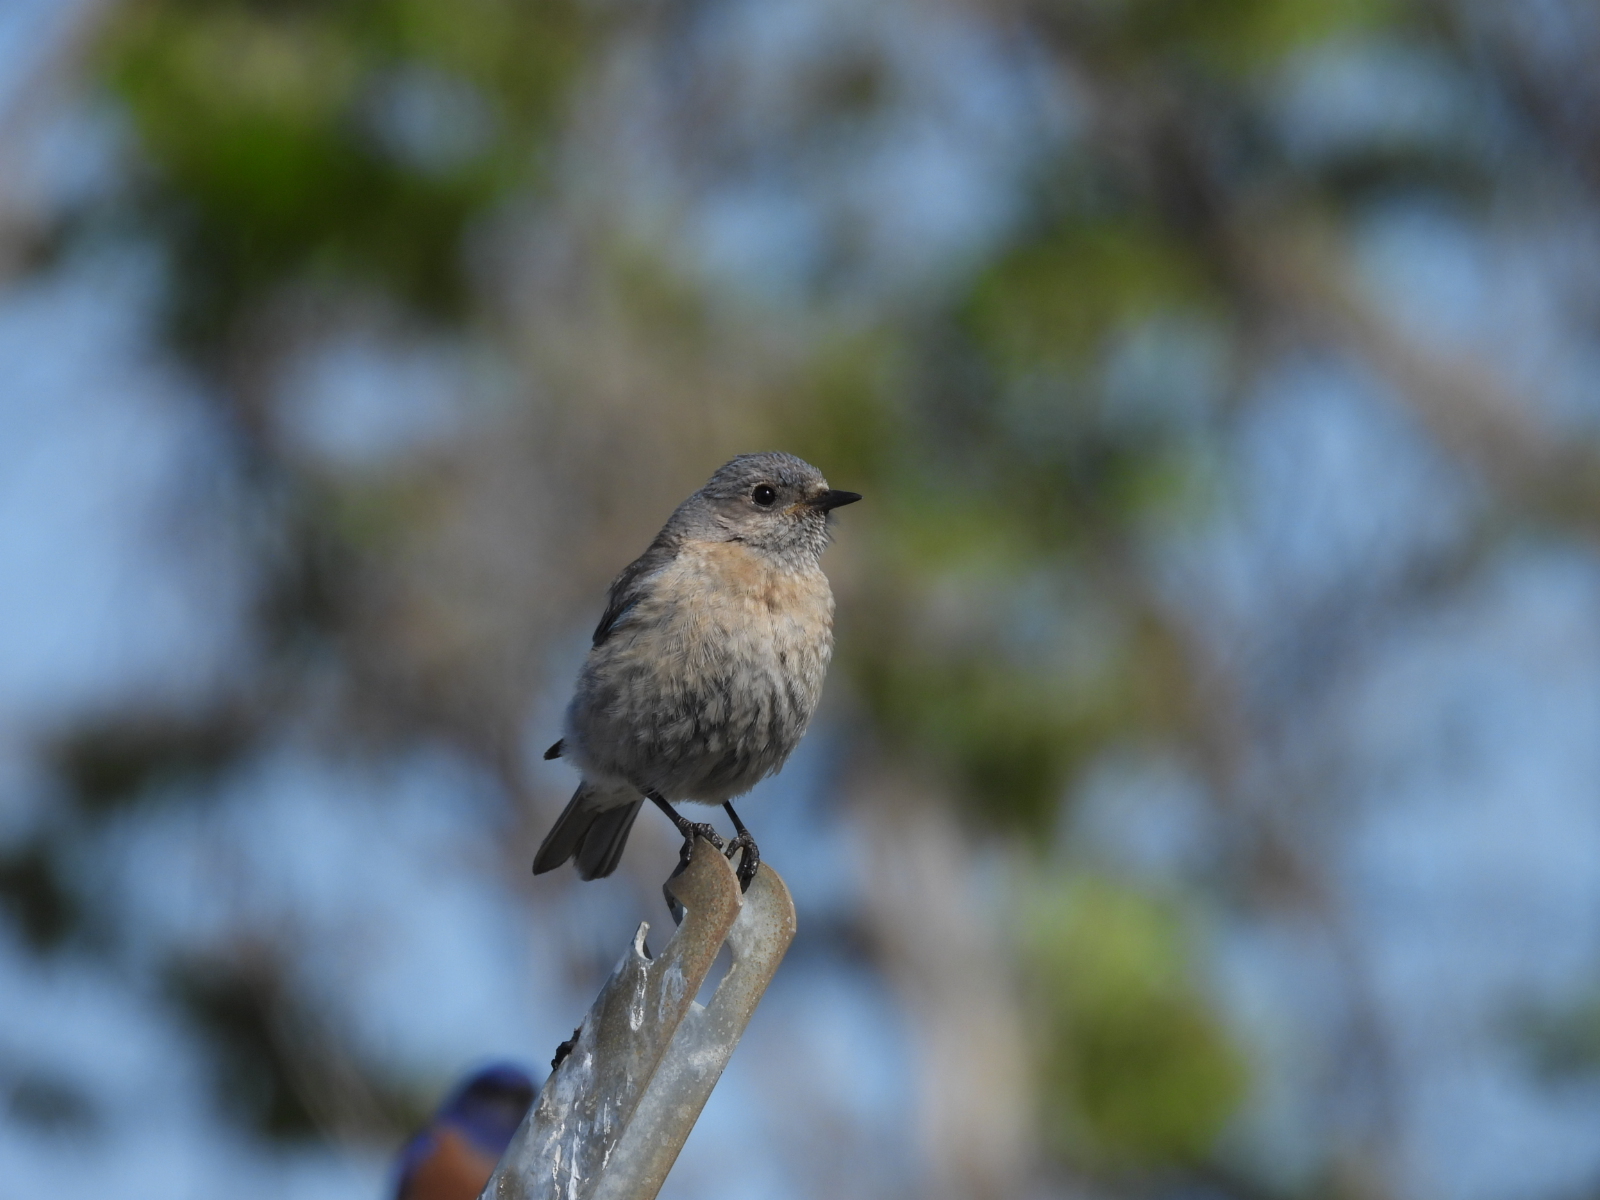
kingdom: Animalia
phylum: Chordata
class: Aves
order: Passeriformes
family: Turdidae
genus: Sialia
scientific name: Sialia mexicana
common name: Western bluebird
